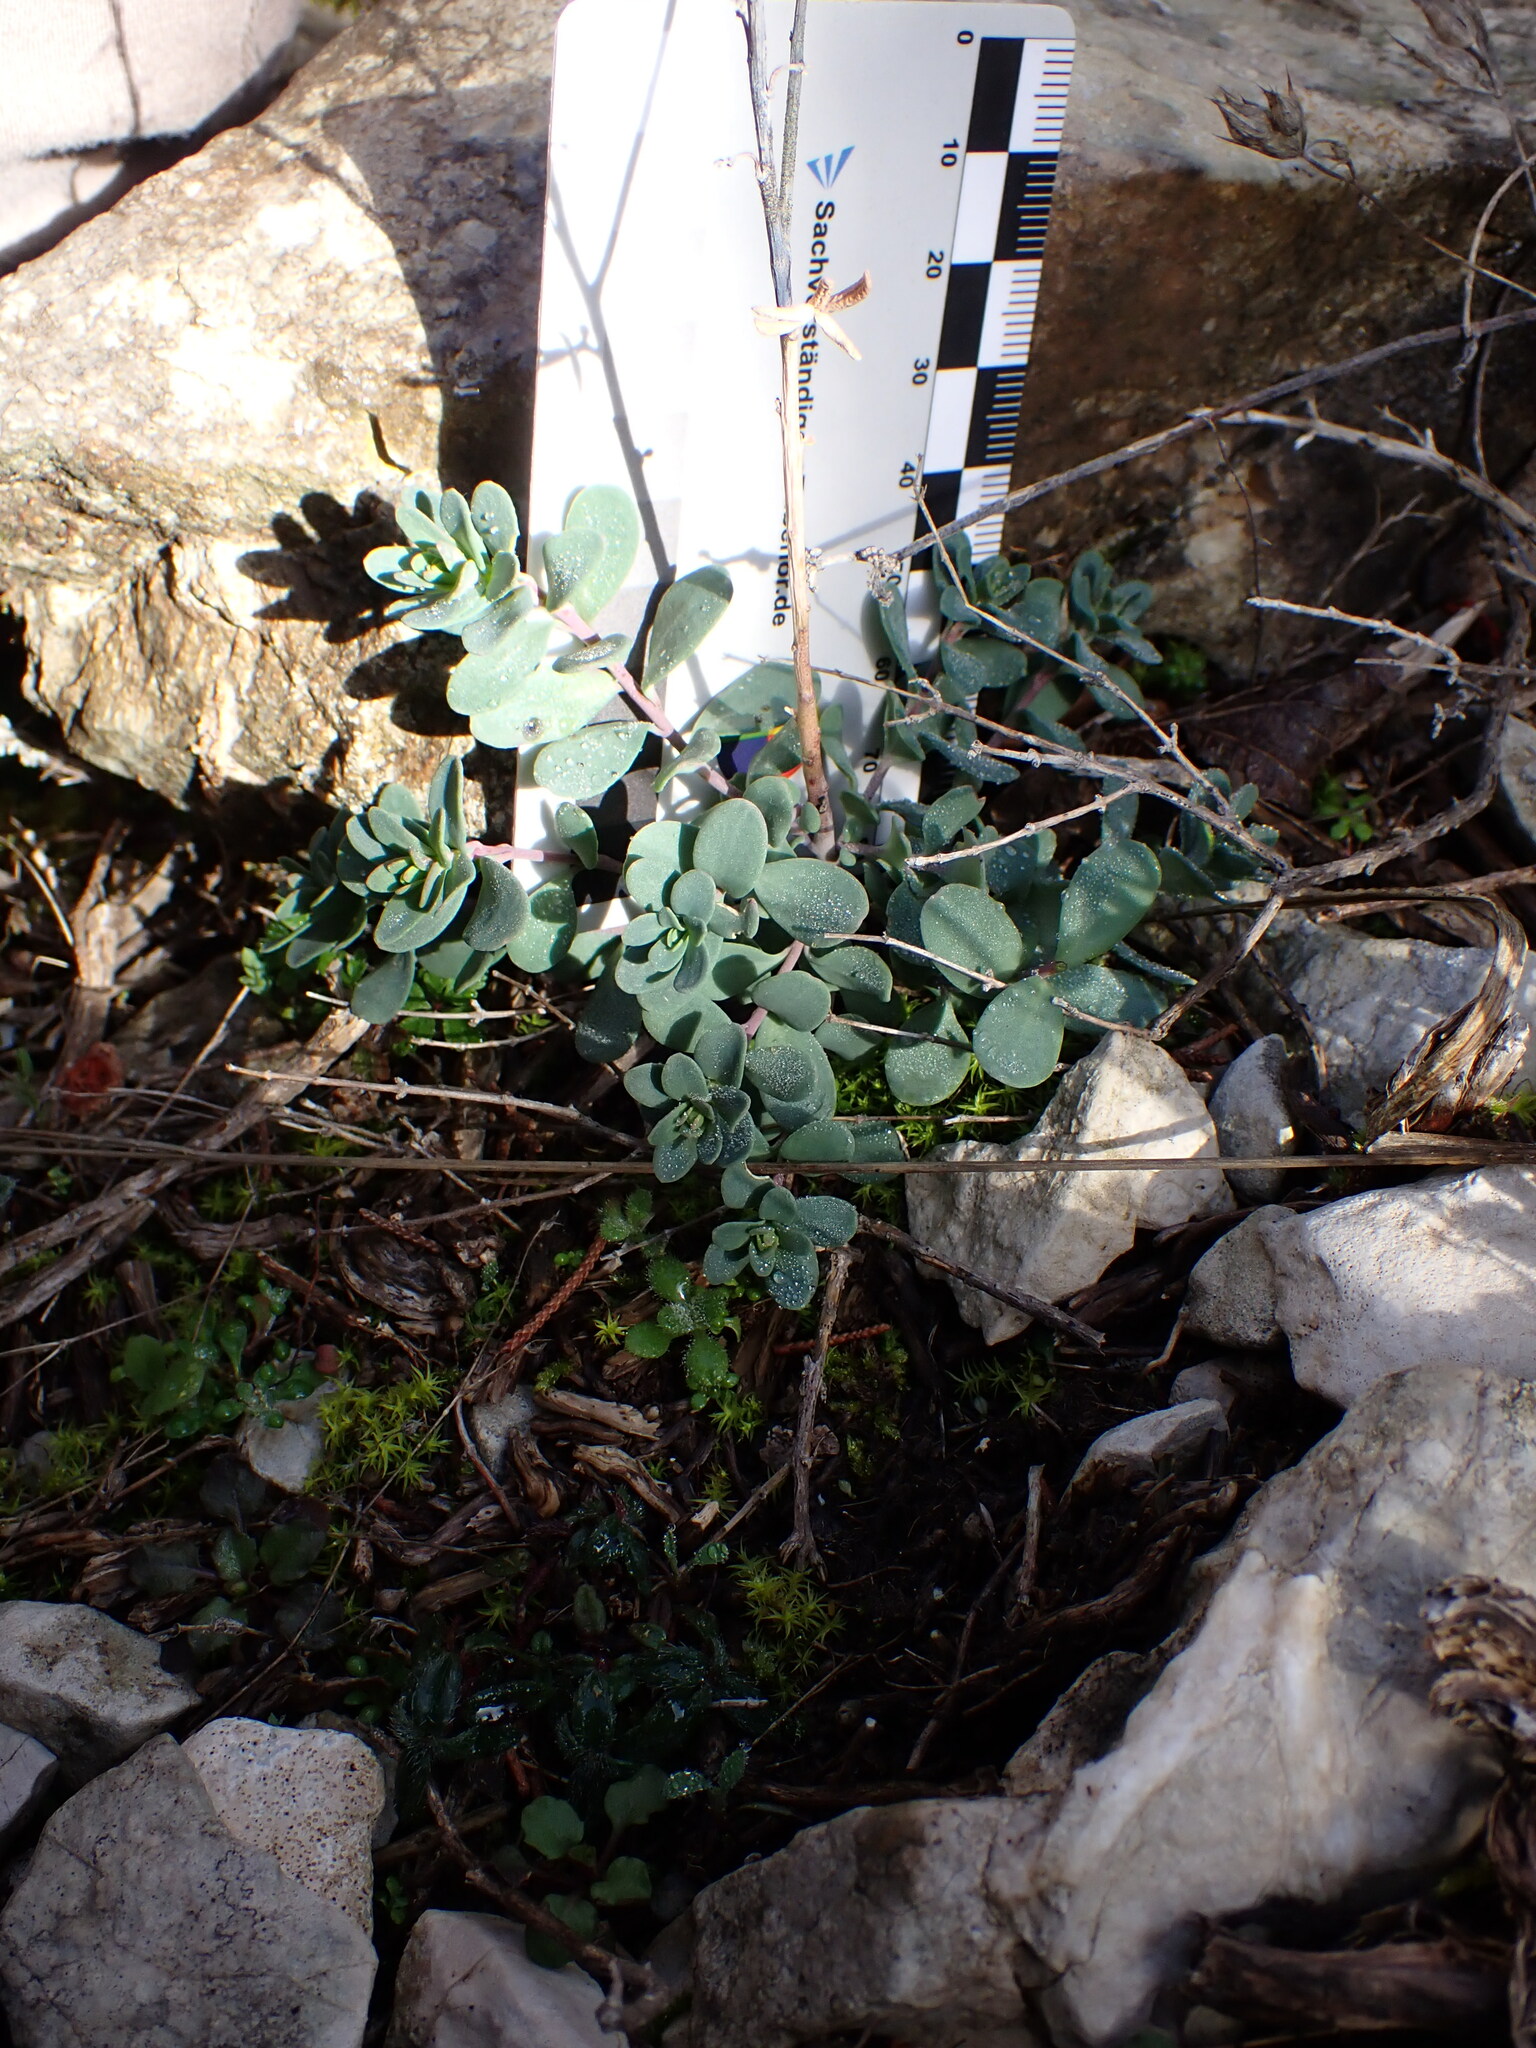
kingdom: Plantae
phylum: Tracheophyta
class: Magnoliopsida
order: Brassicales
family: Brassicaceae
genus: Aethionema
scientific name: Aethionema saxatile
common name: Burnt candytuft
